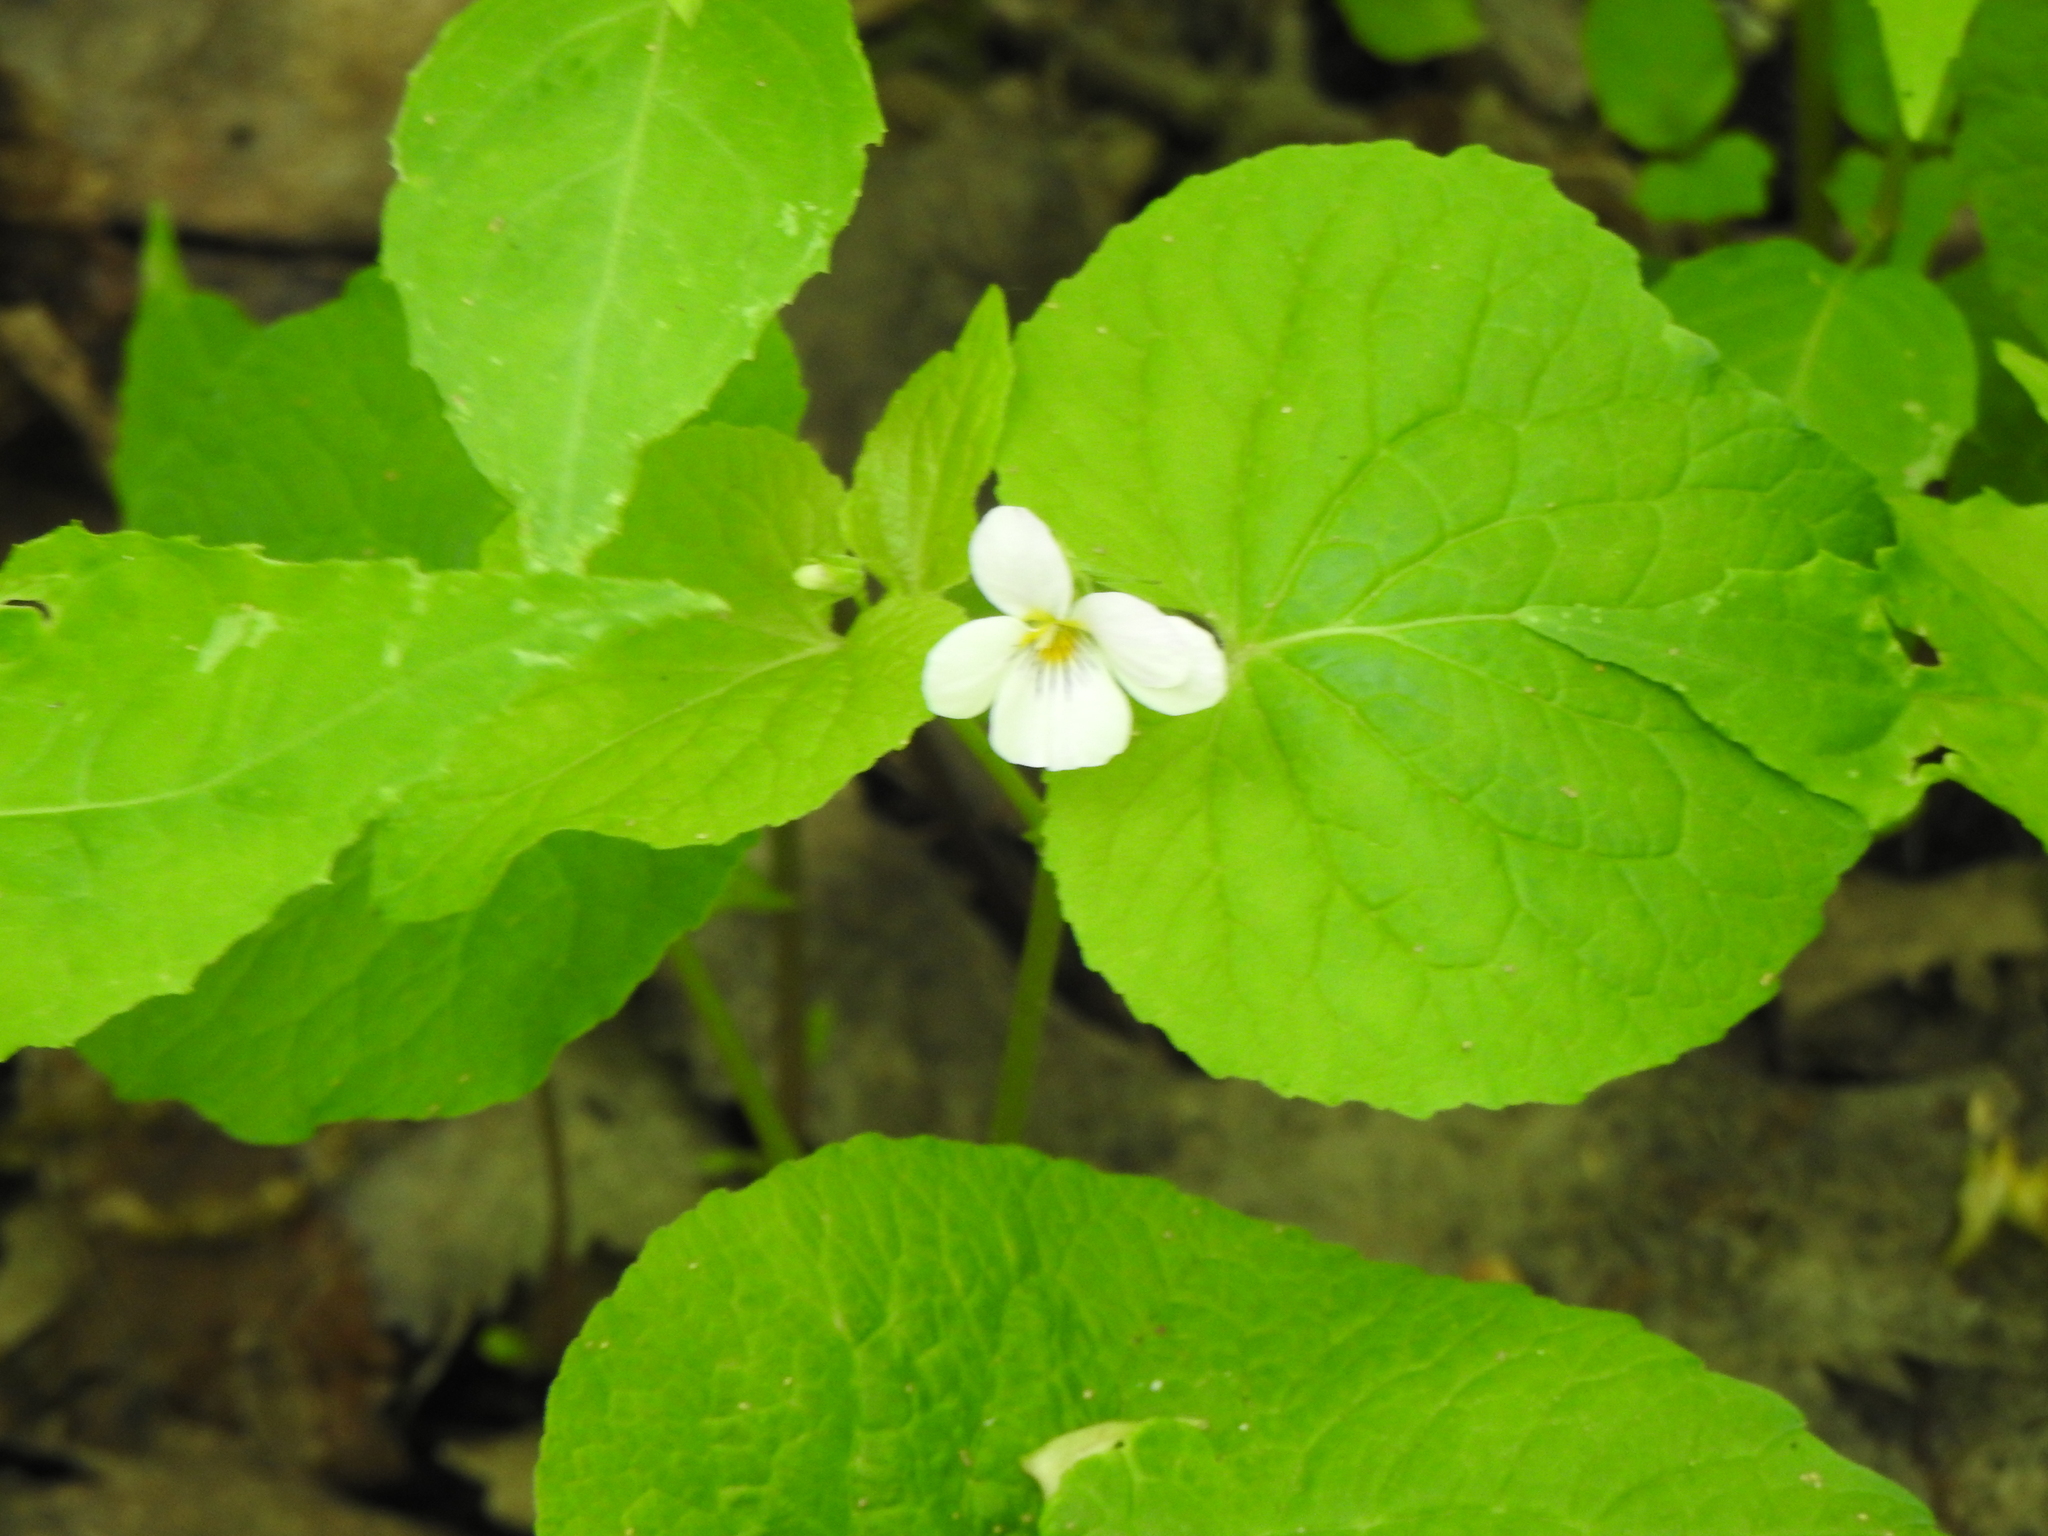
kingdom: Plantae
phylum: Tracheophyta
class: Magnoliopsida
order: Malpighiales
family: Violaceae
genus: Viola
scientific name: Viola canadensis
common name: Canada violet
